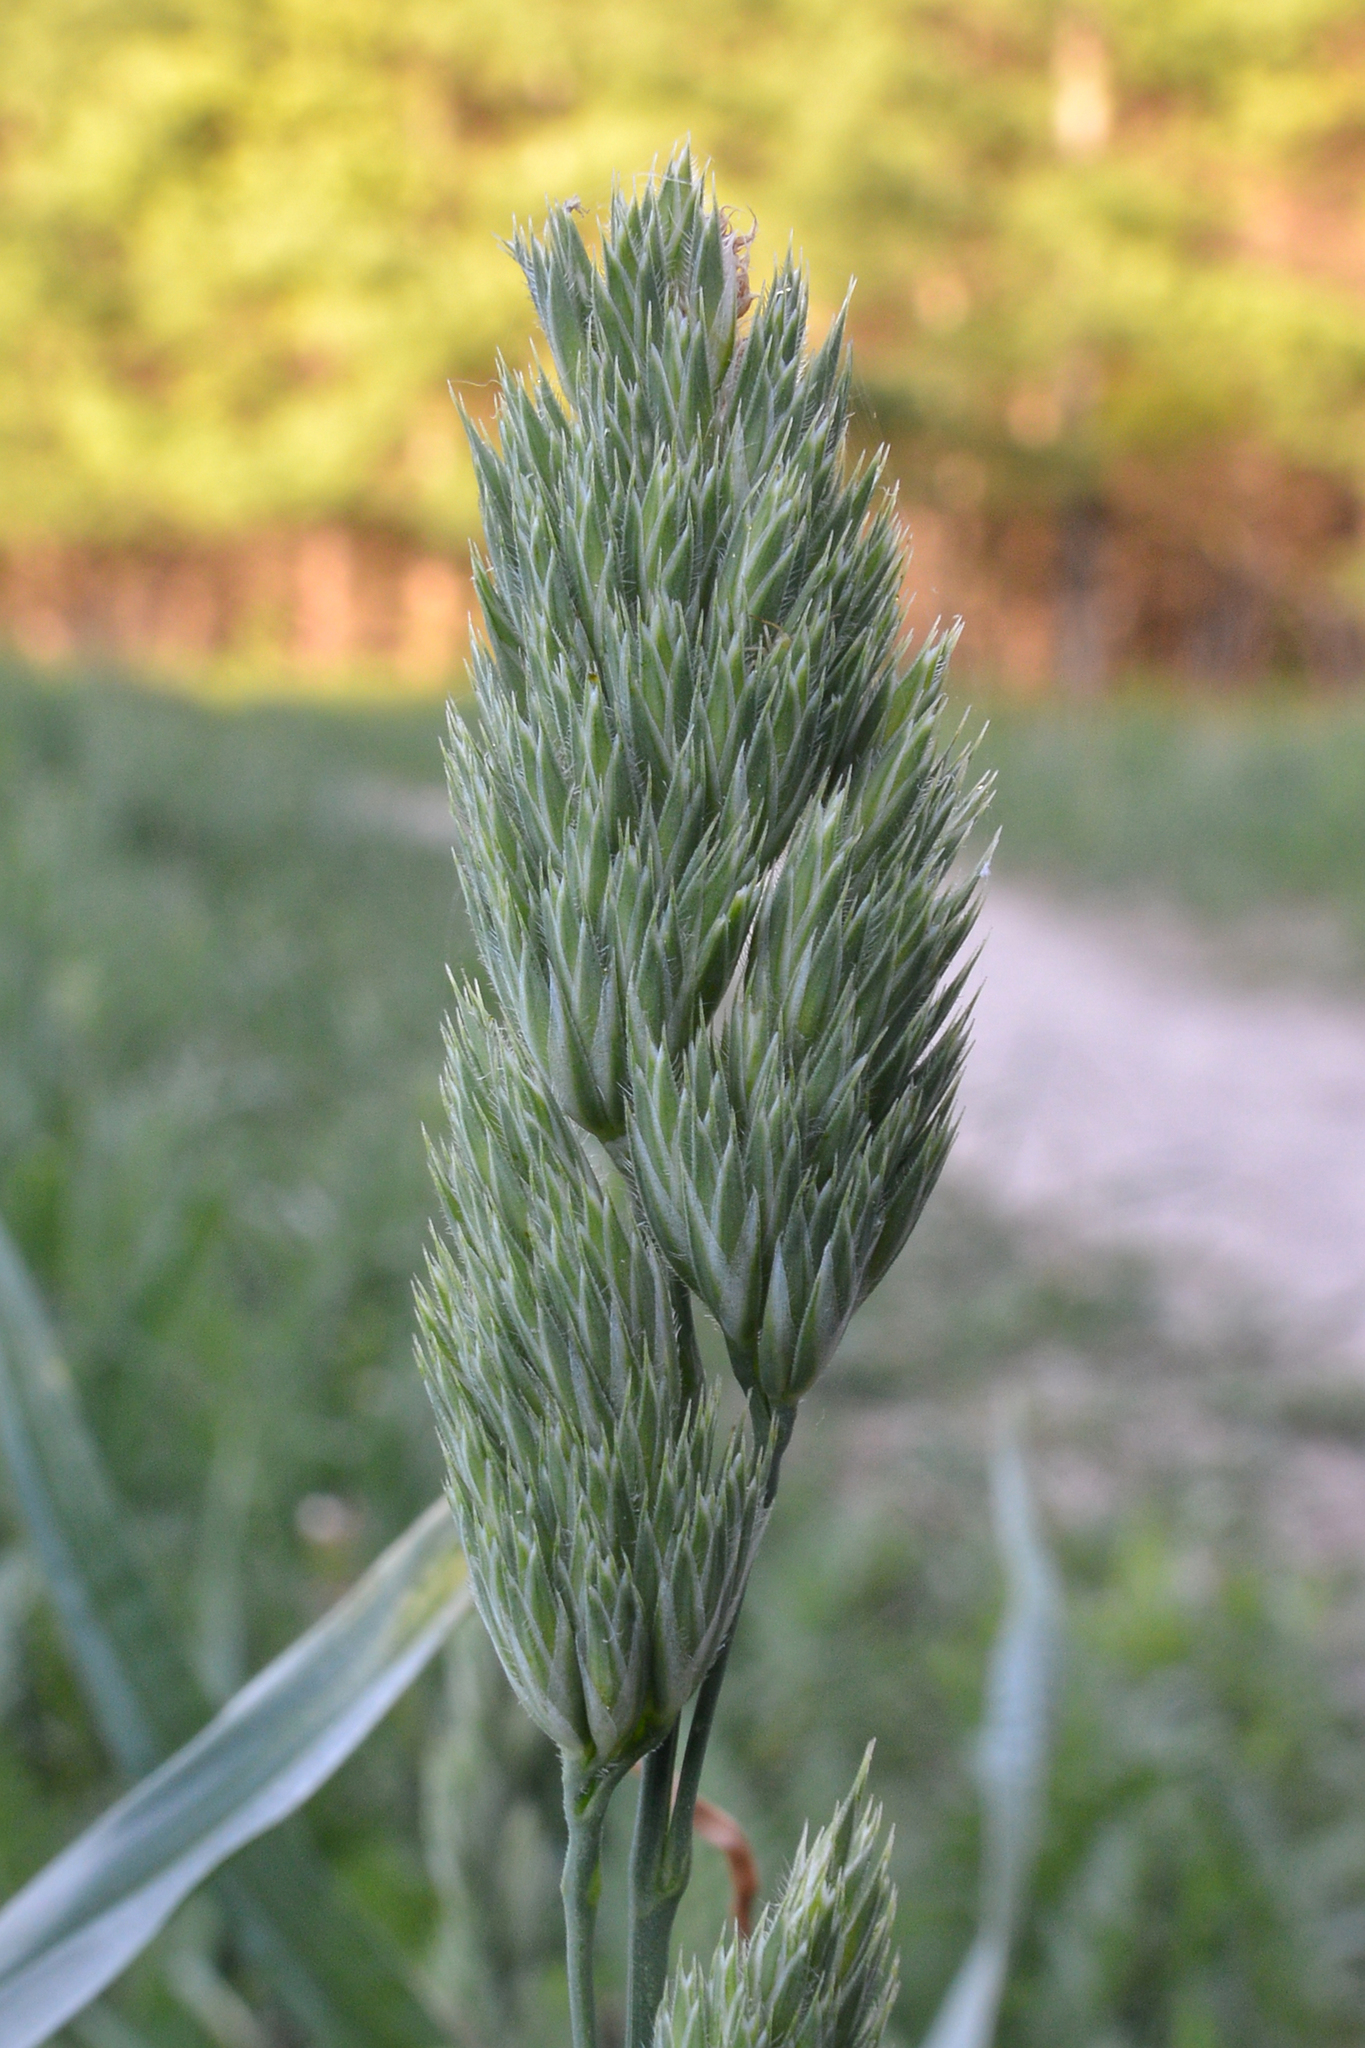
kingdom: Plantae
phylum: Tracheophyta
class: Liliopsida
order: Poales
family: Poaceae
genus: Dactylis
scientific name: Dactylis glomerata
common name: Orchardgrass
